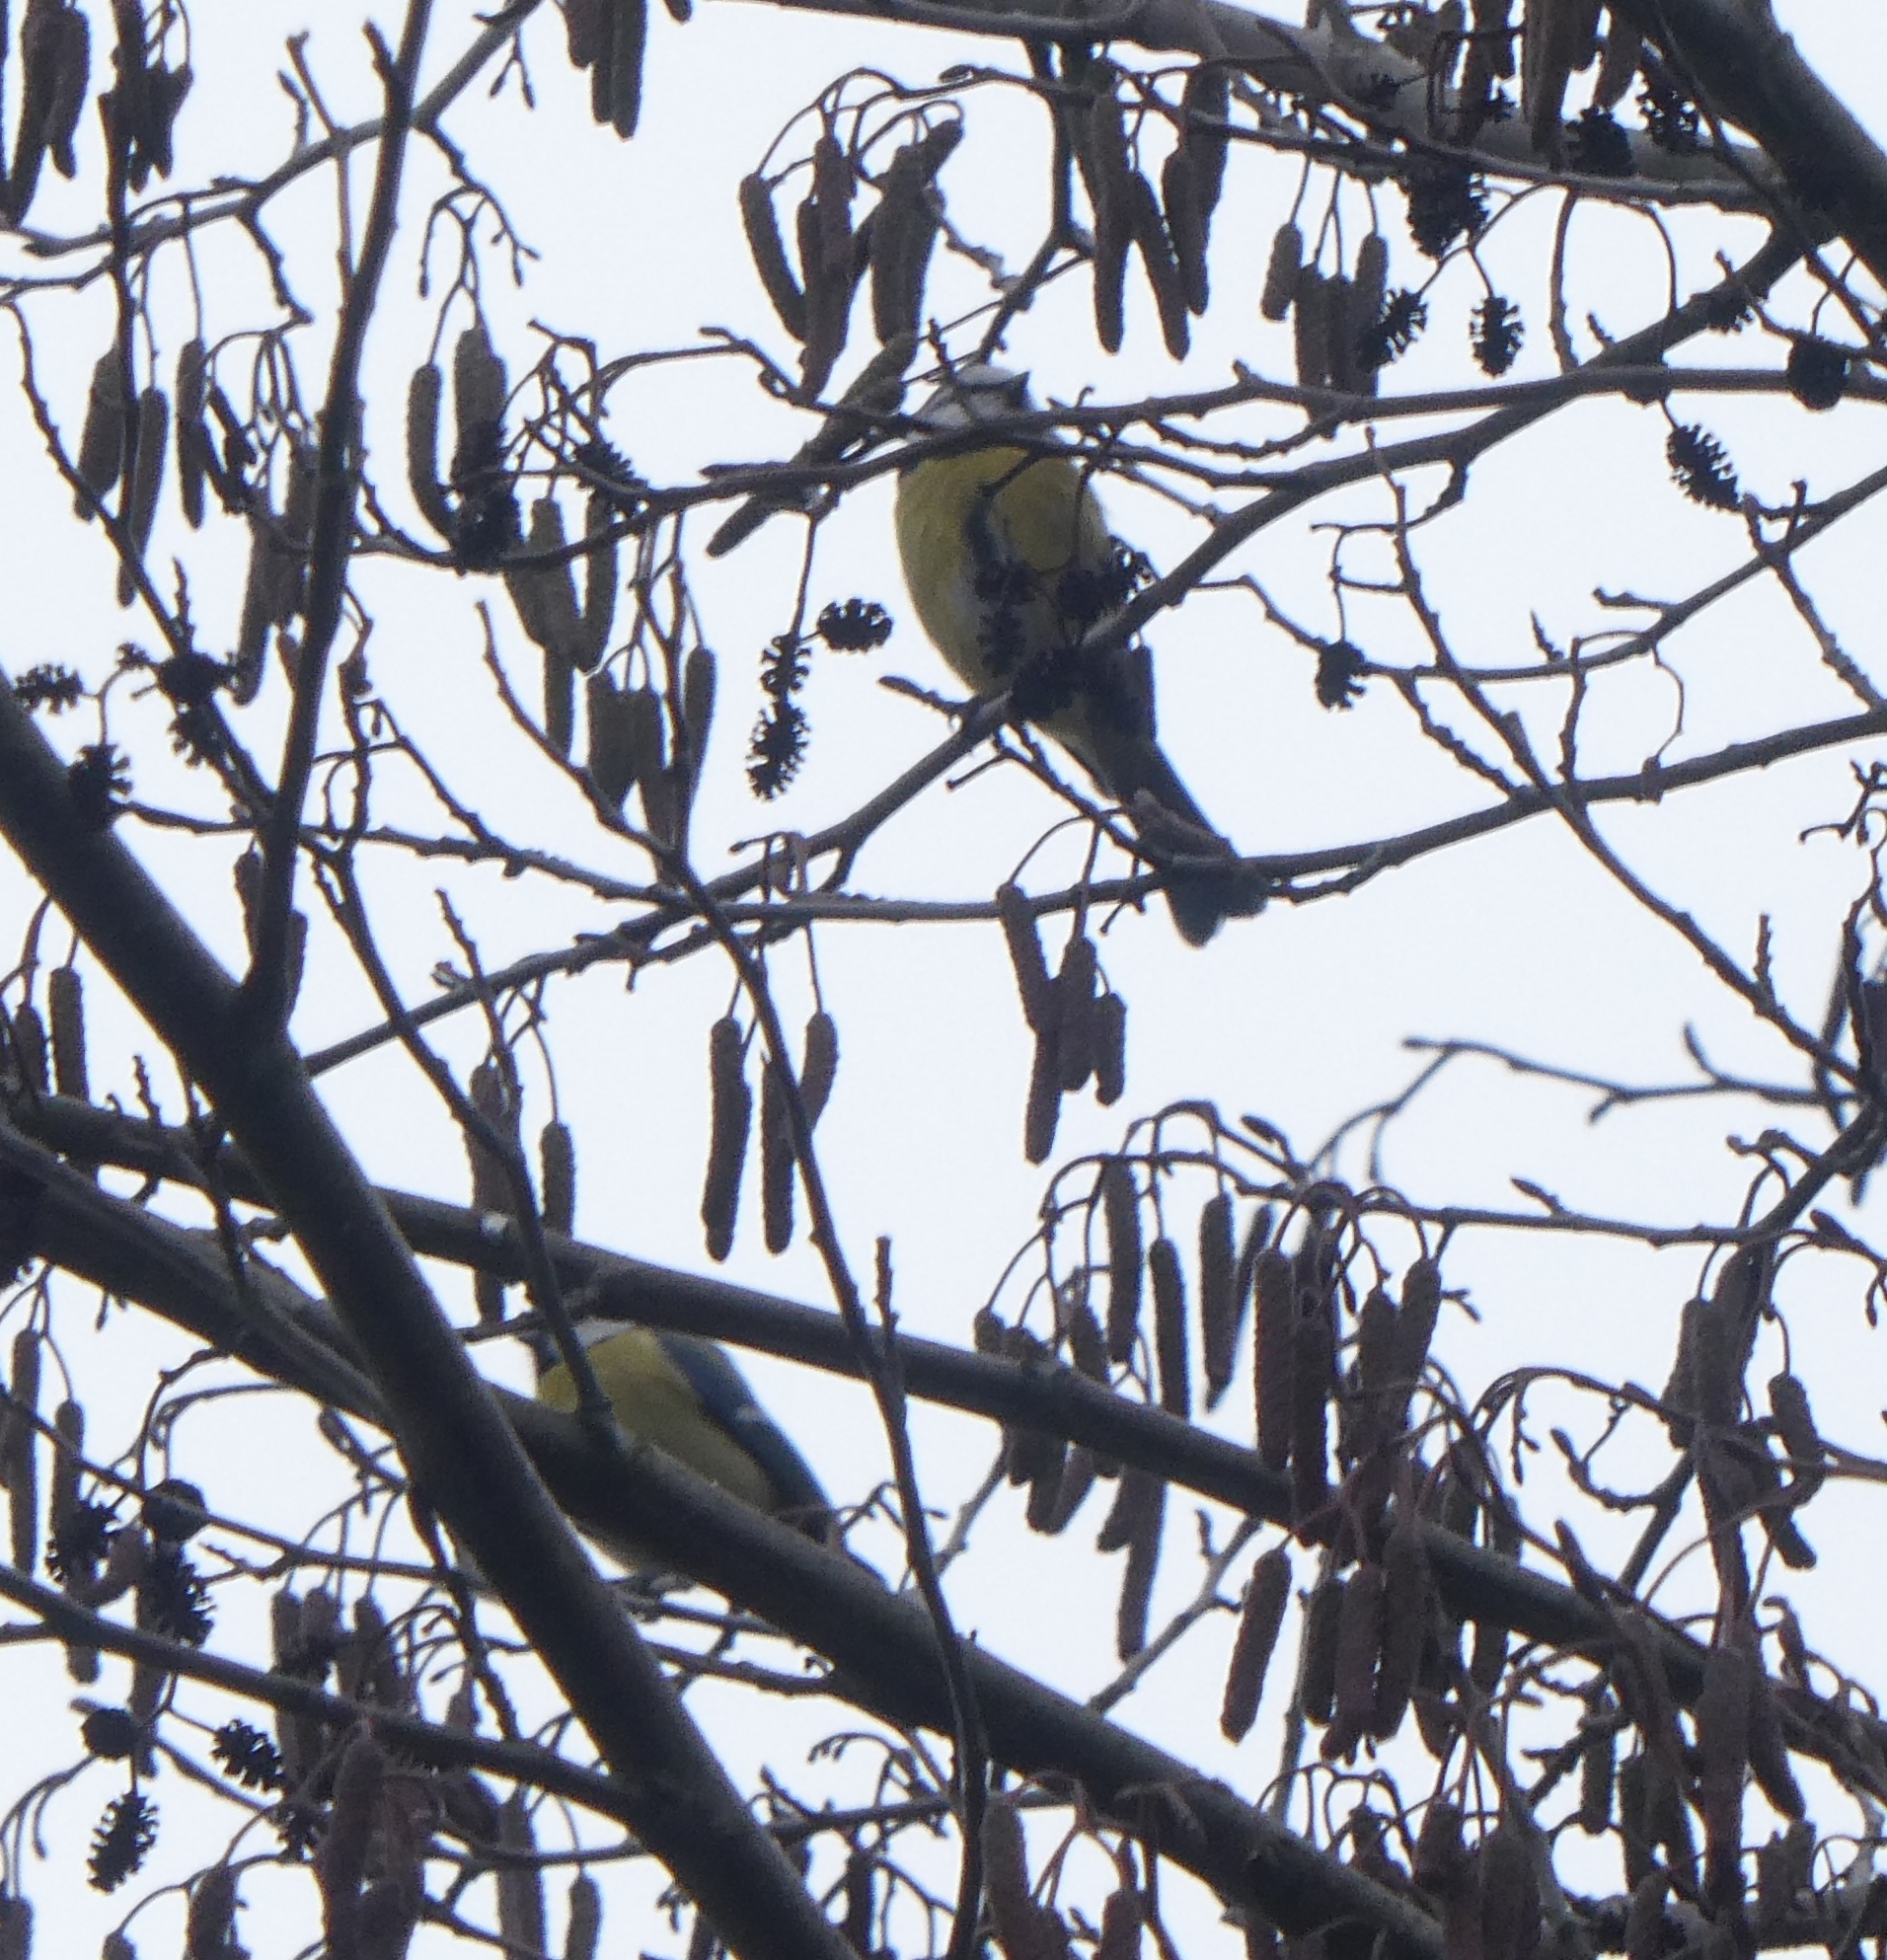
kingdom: Animalia
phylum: Chordata
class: Aves
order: Passeriformes
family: Paridae
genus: Cyanistes
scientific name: Cyanistes caeruleus
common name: Eurasian blue tit
